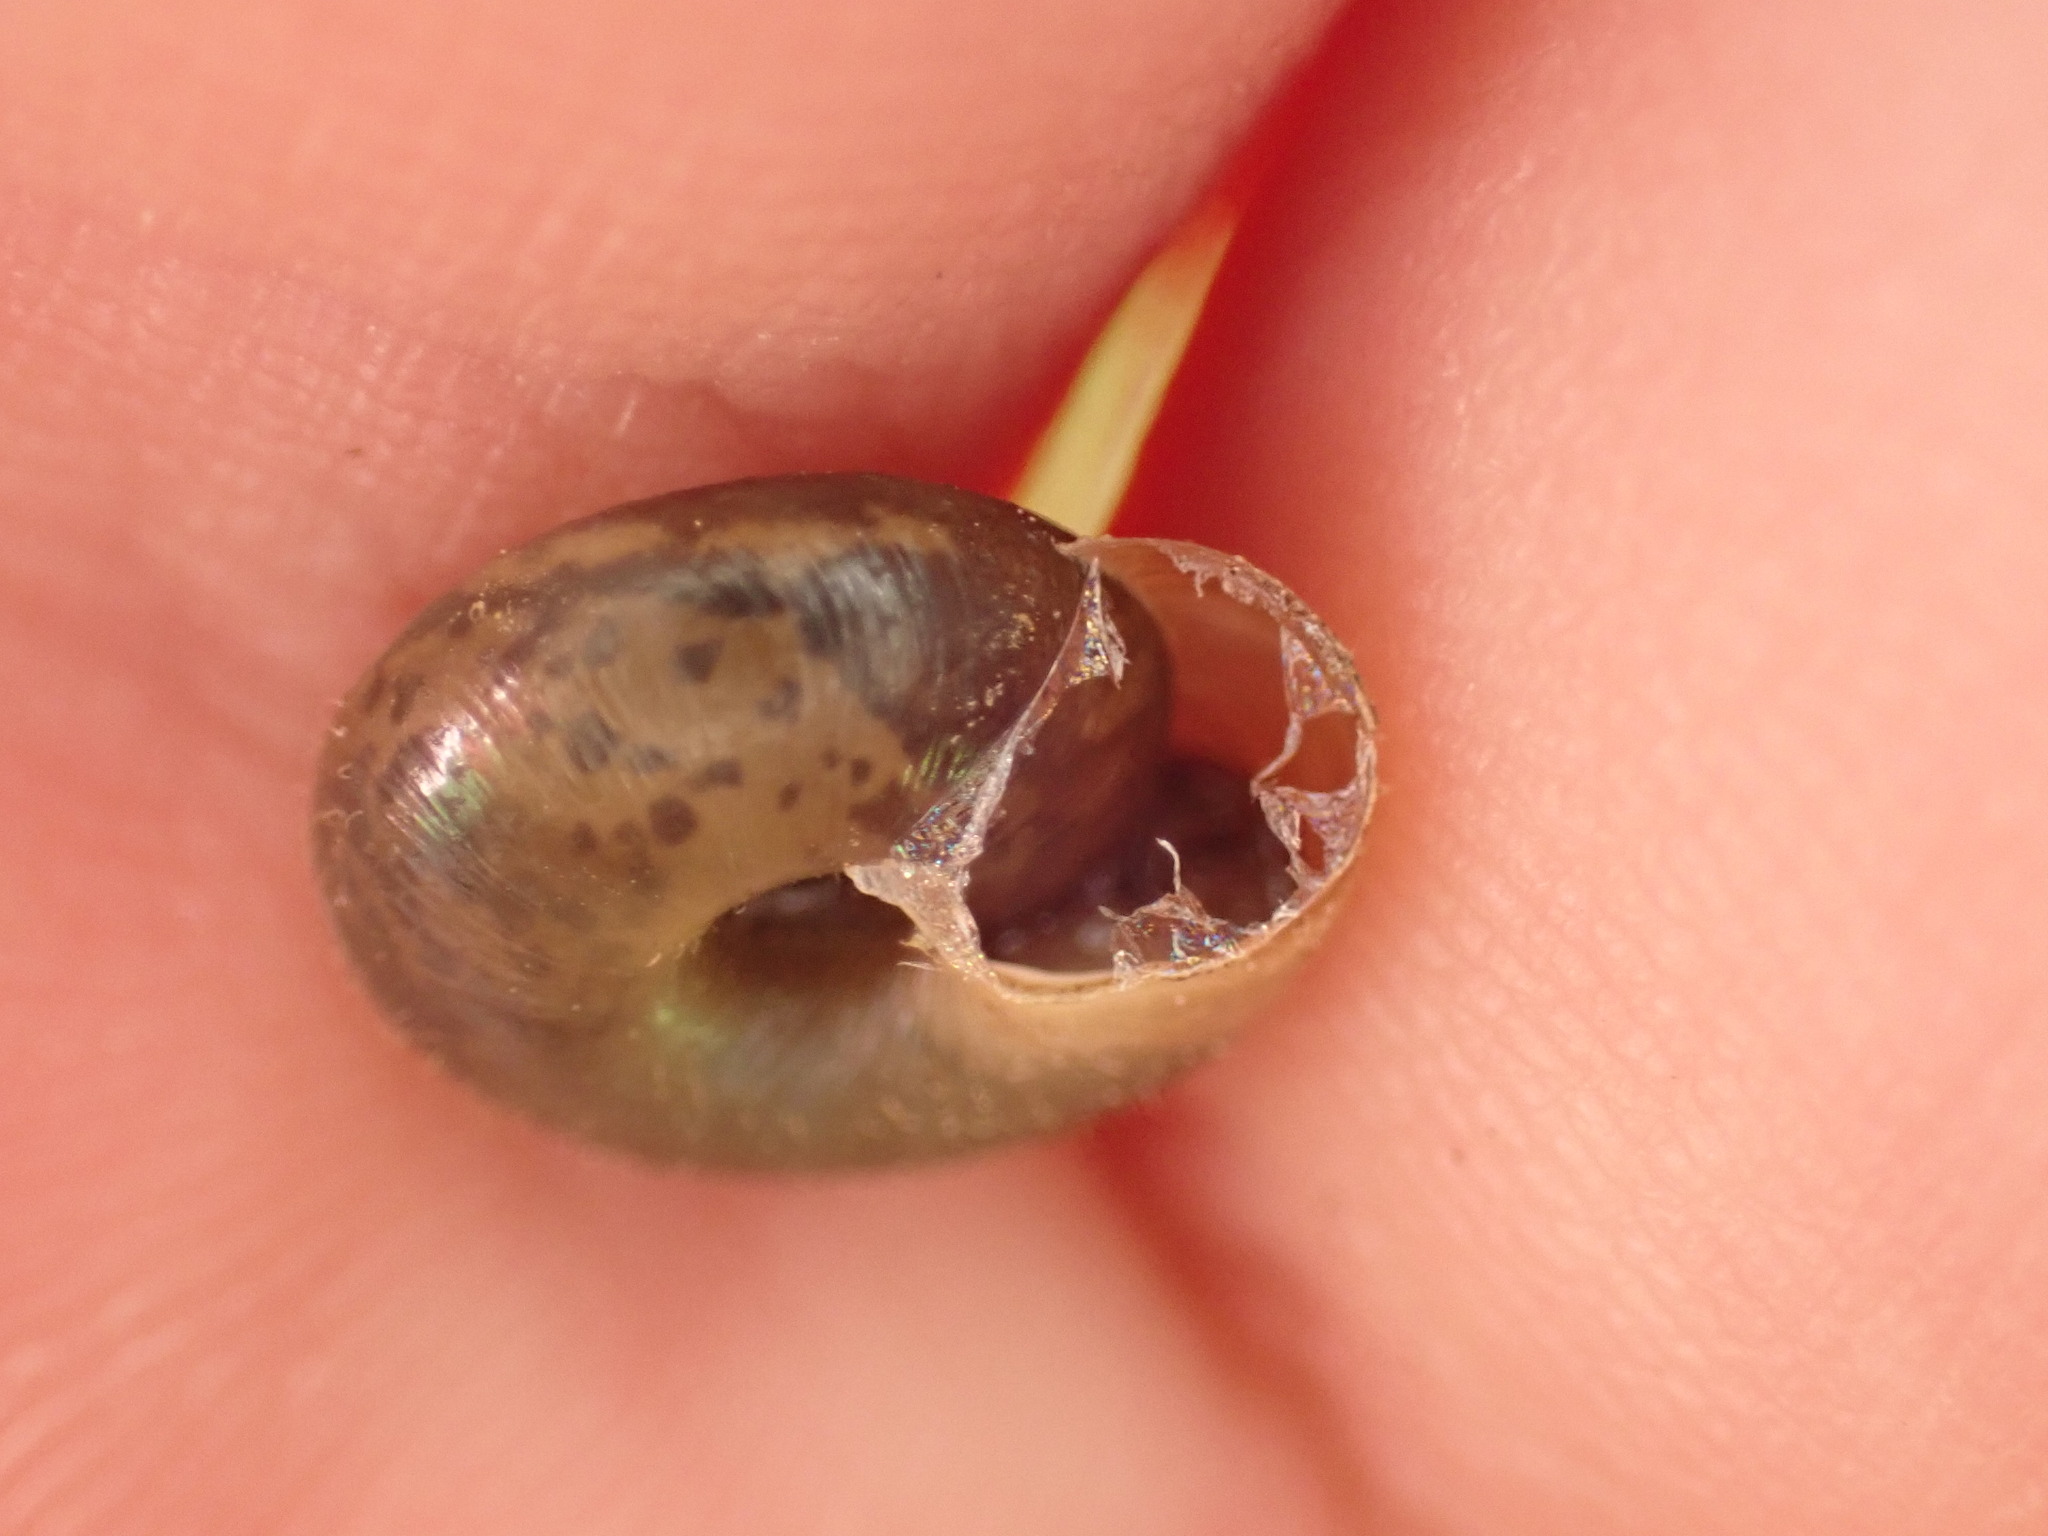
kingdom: Animalia
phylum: Mollusca
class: Gastropoda
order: Stylommatophora
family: Hygromiidae
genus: Trochulus
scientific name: Trochulus hispidus
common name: Hairy snail
